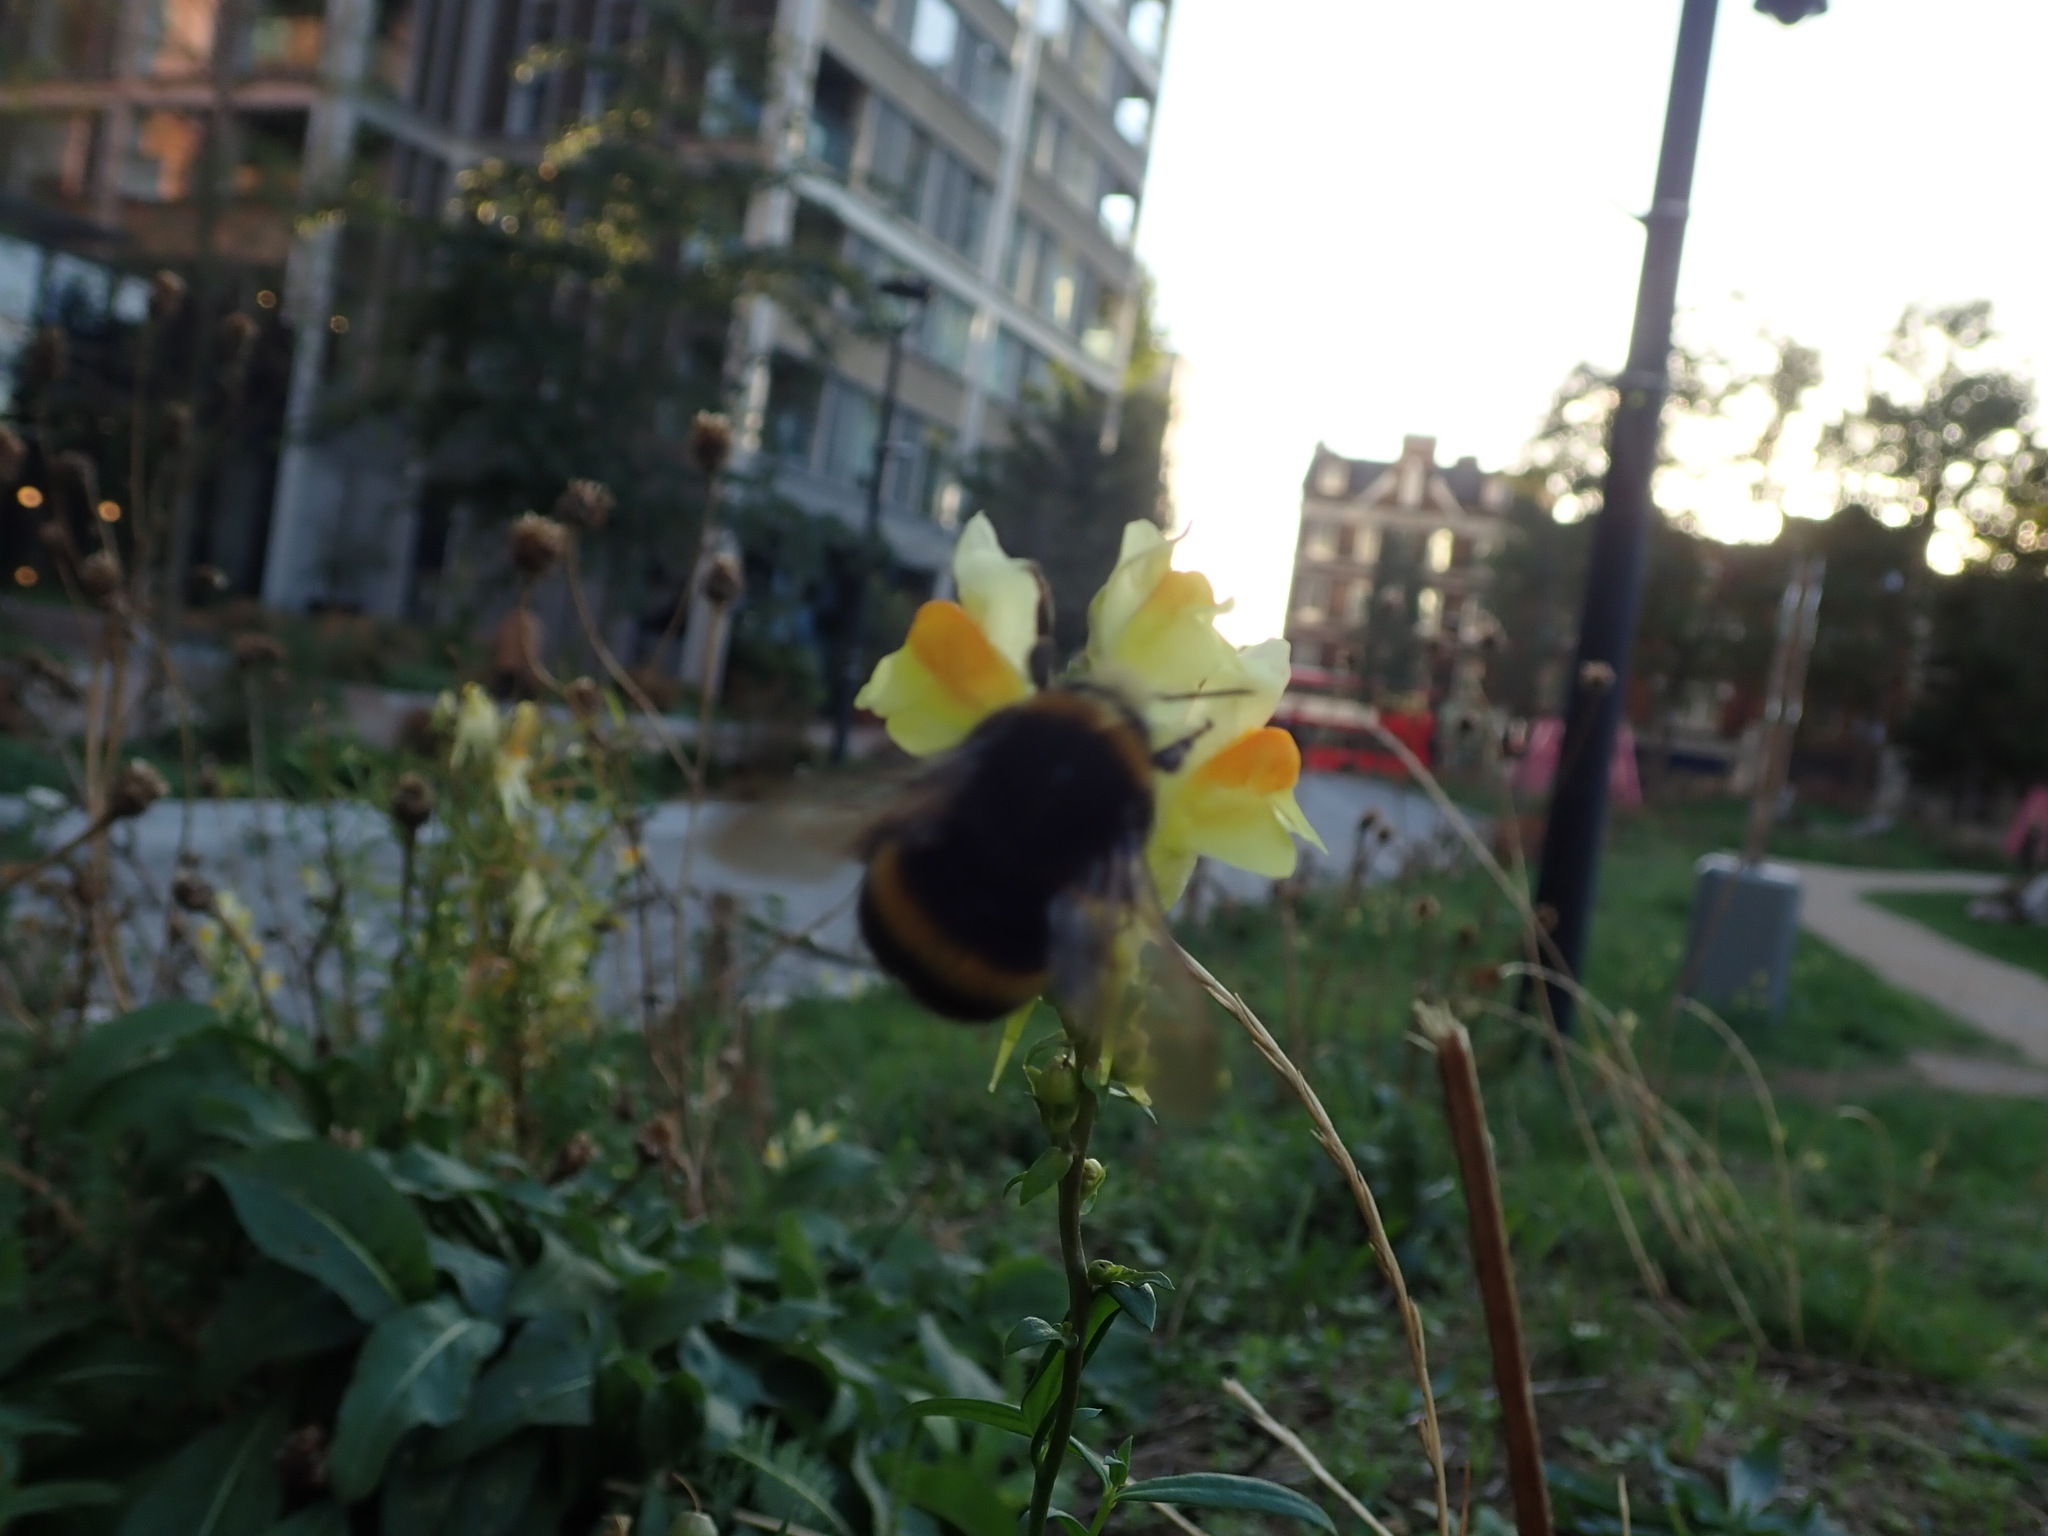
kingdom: Animalia
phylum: Arthropoda
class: Insecta
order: Hymenoptera
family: Apidae
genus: Bombus
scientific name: Bombus
